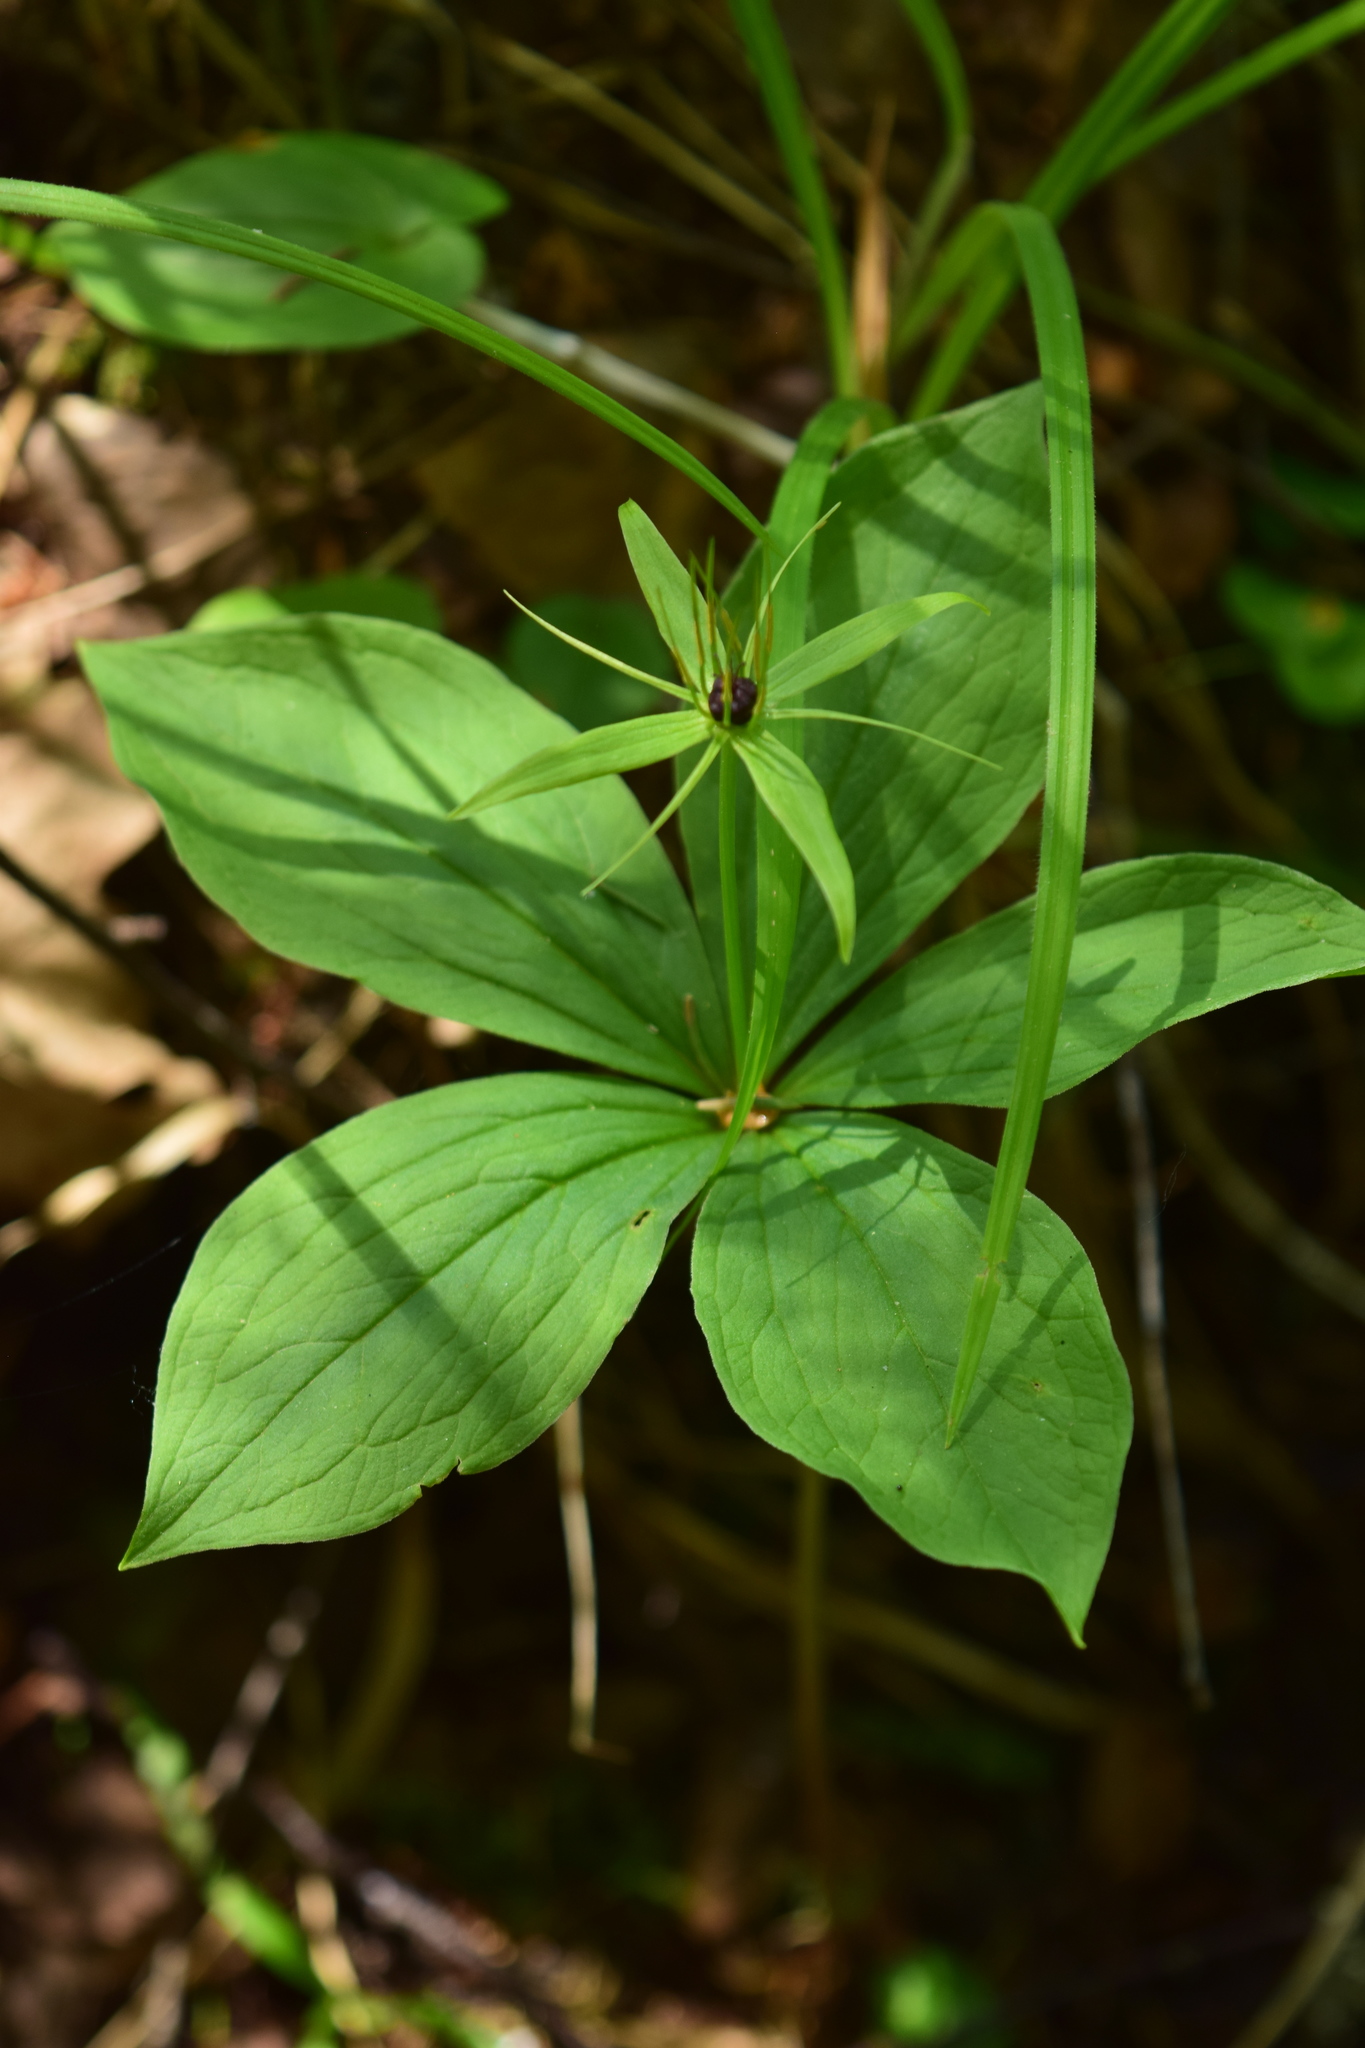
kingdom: Plantae
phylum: Tracheophyta
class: Liliopsida
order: Liliales
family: Melanthiaceae
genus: Paris
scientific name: Paris quadrifolia
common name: Herb-paris
